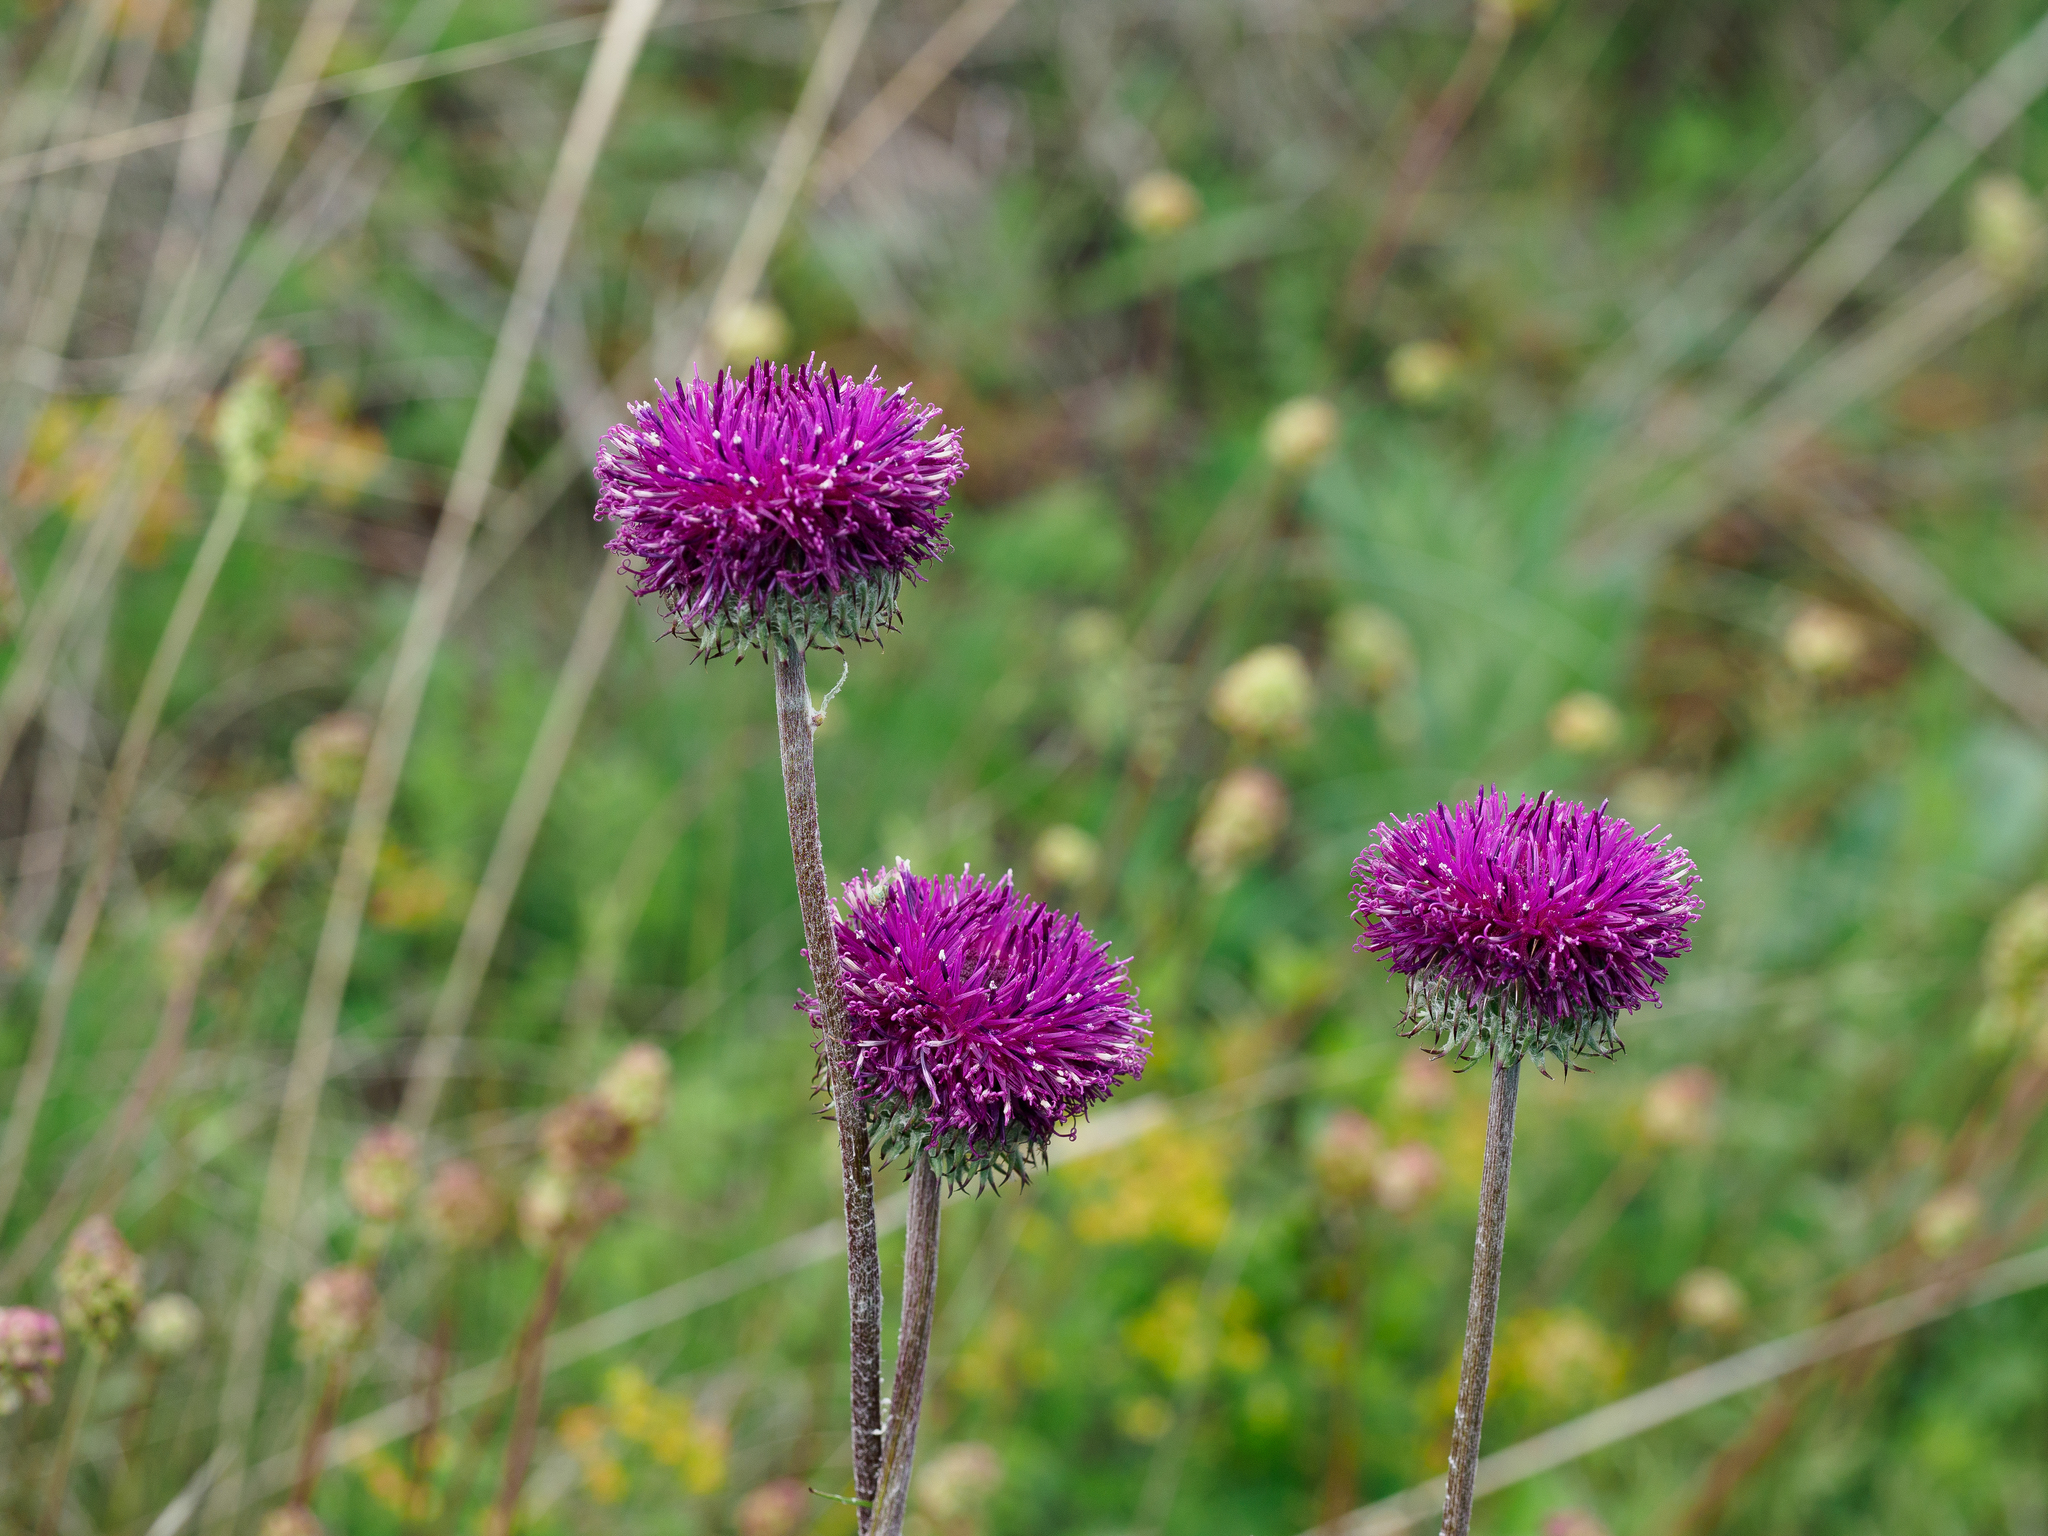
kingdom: Plantae
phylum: Tracheophyta
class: Magnoliopsida
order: Asterales
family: Asteraceae
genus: Jurinea
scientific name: Jurinea mollis
